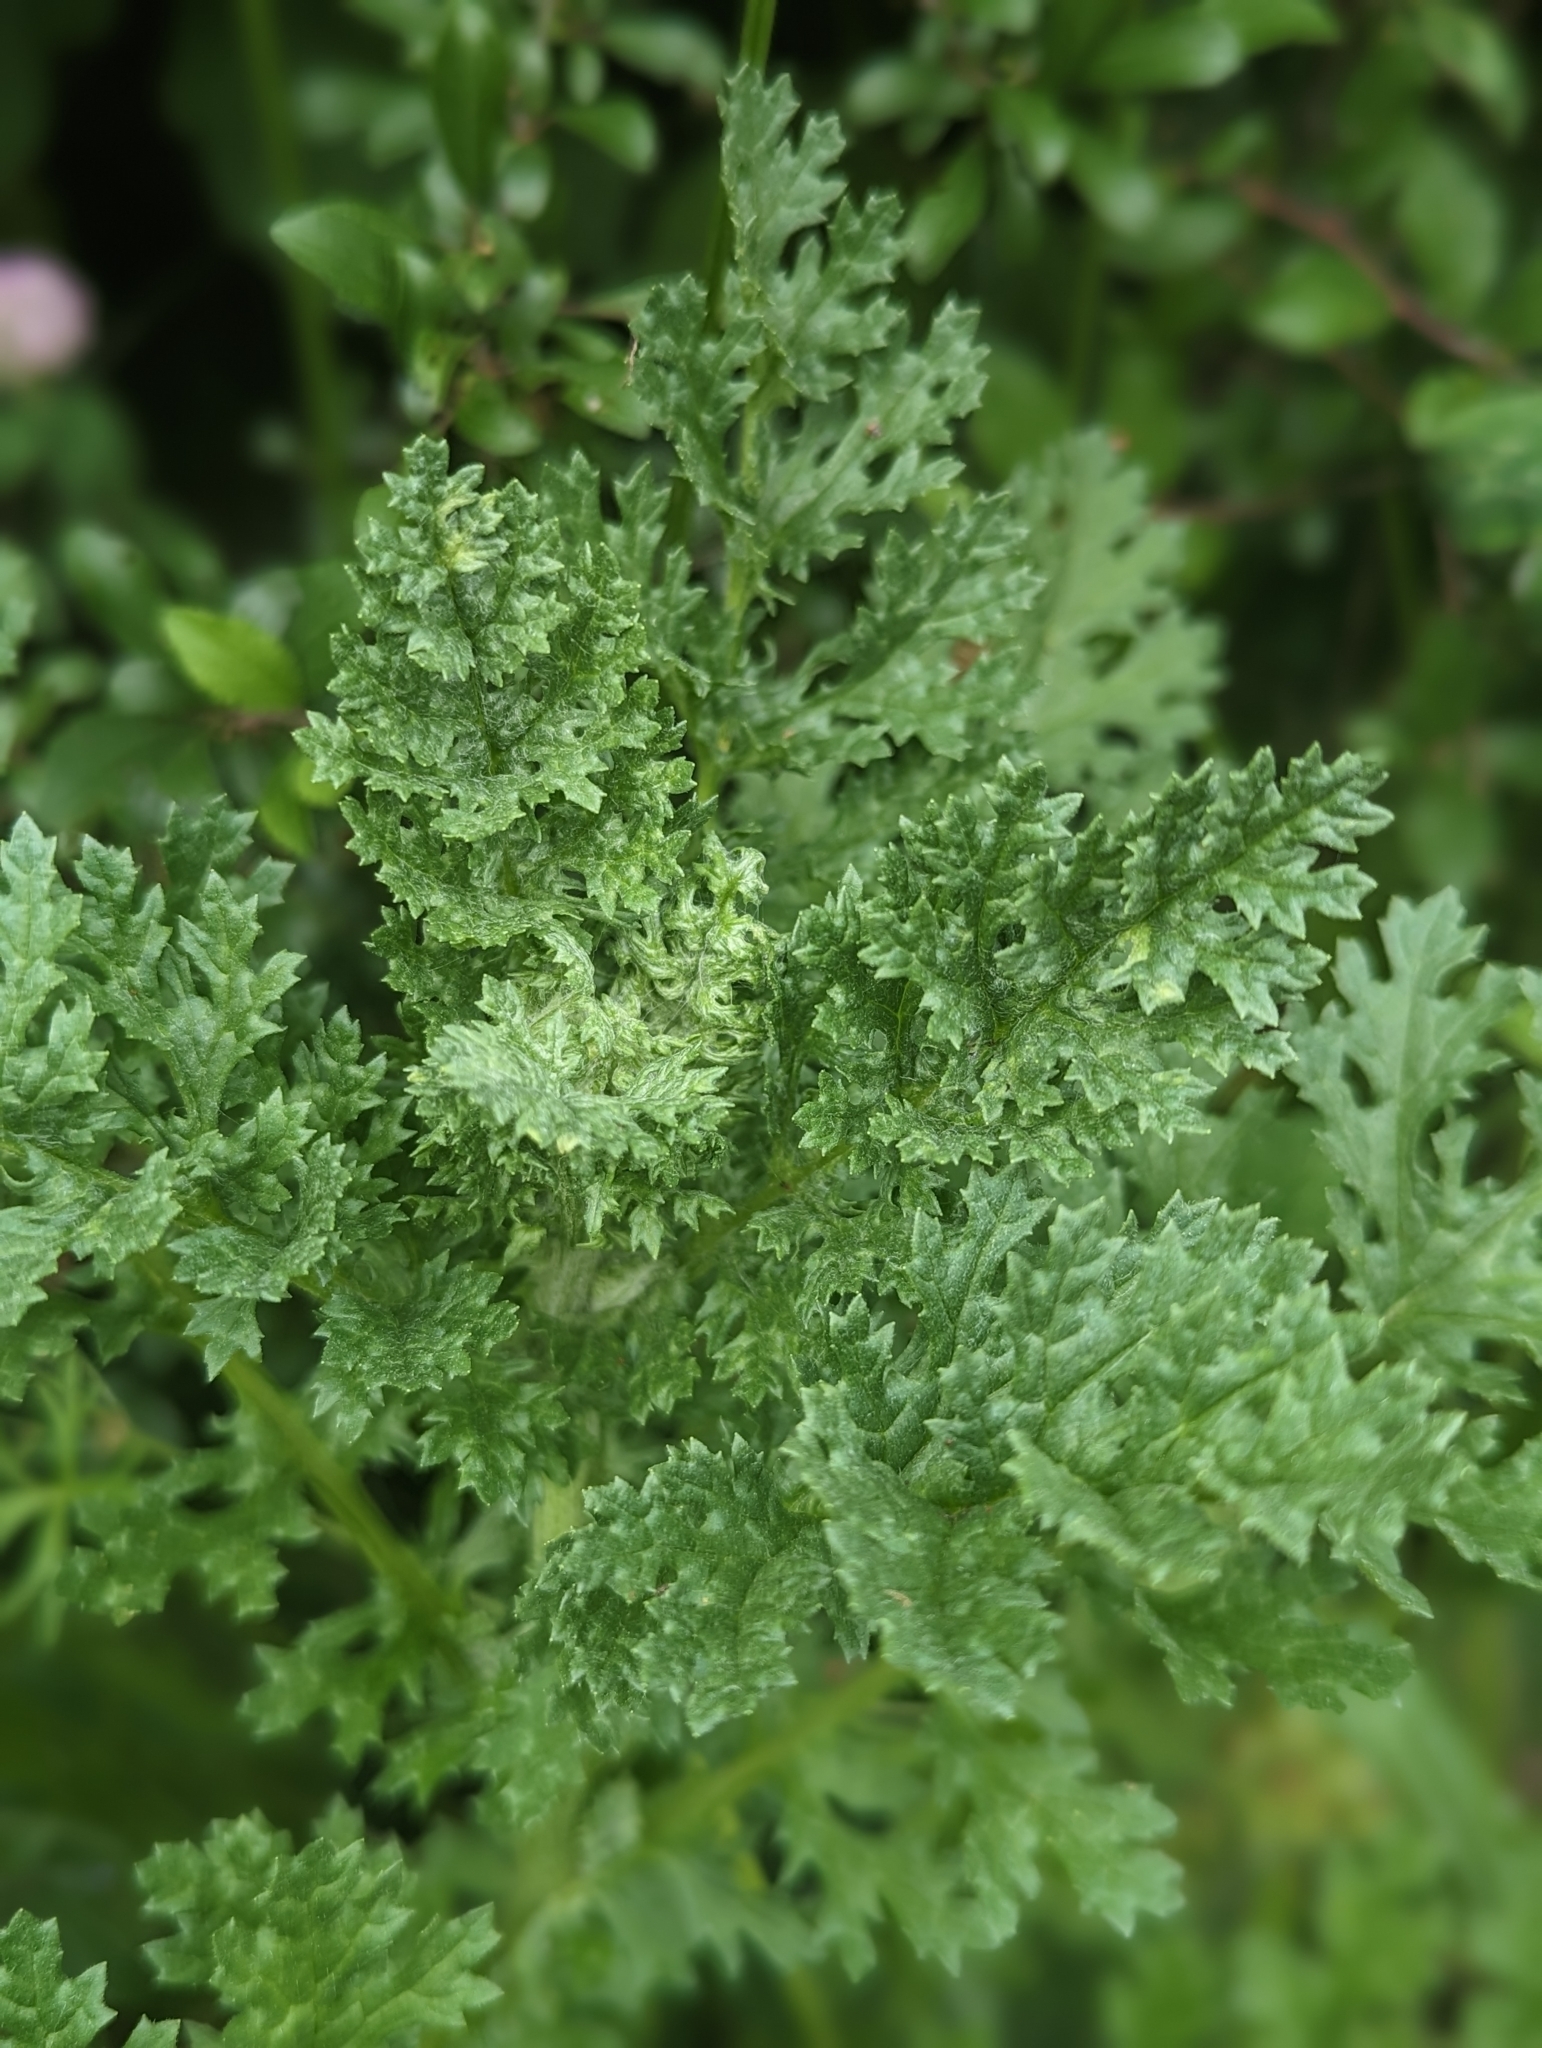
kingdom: Plantae
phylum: Tracheophyta
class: Magnoliopsida
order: Asterales
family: Asteraceae
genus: Jacobaea
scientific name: Jacobaea vulgaris
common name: Stinking willie
